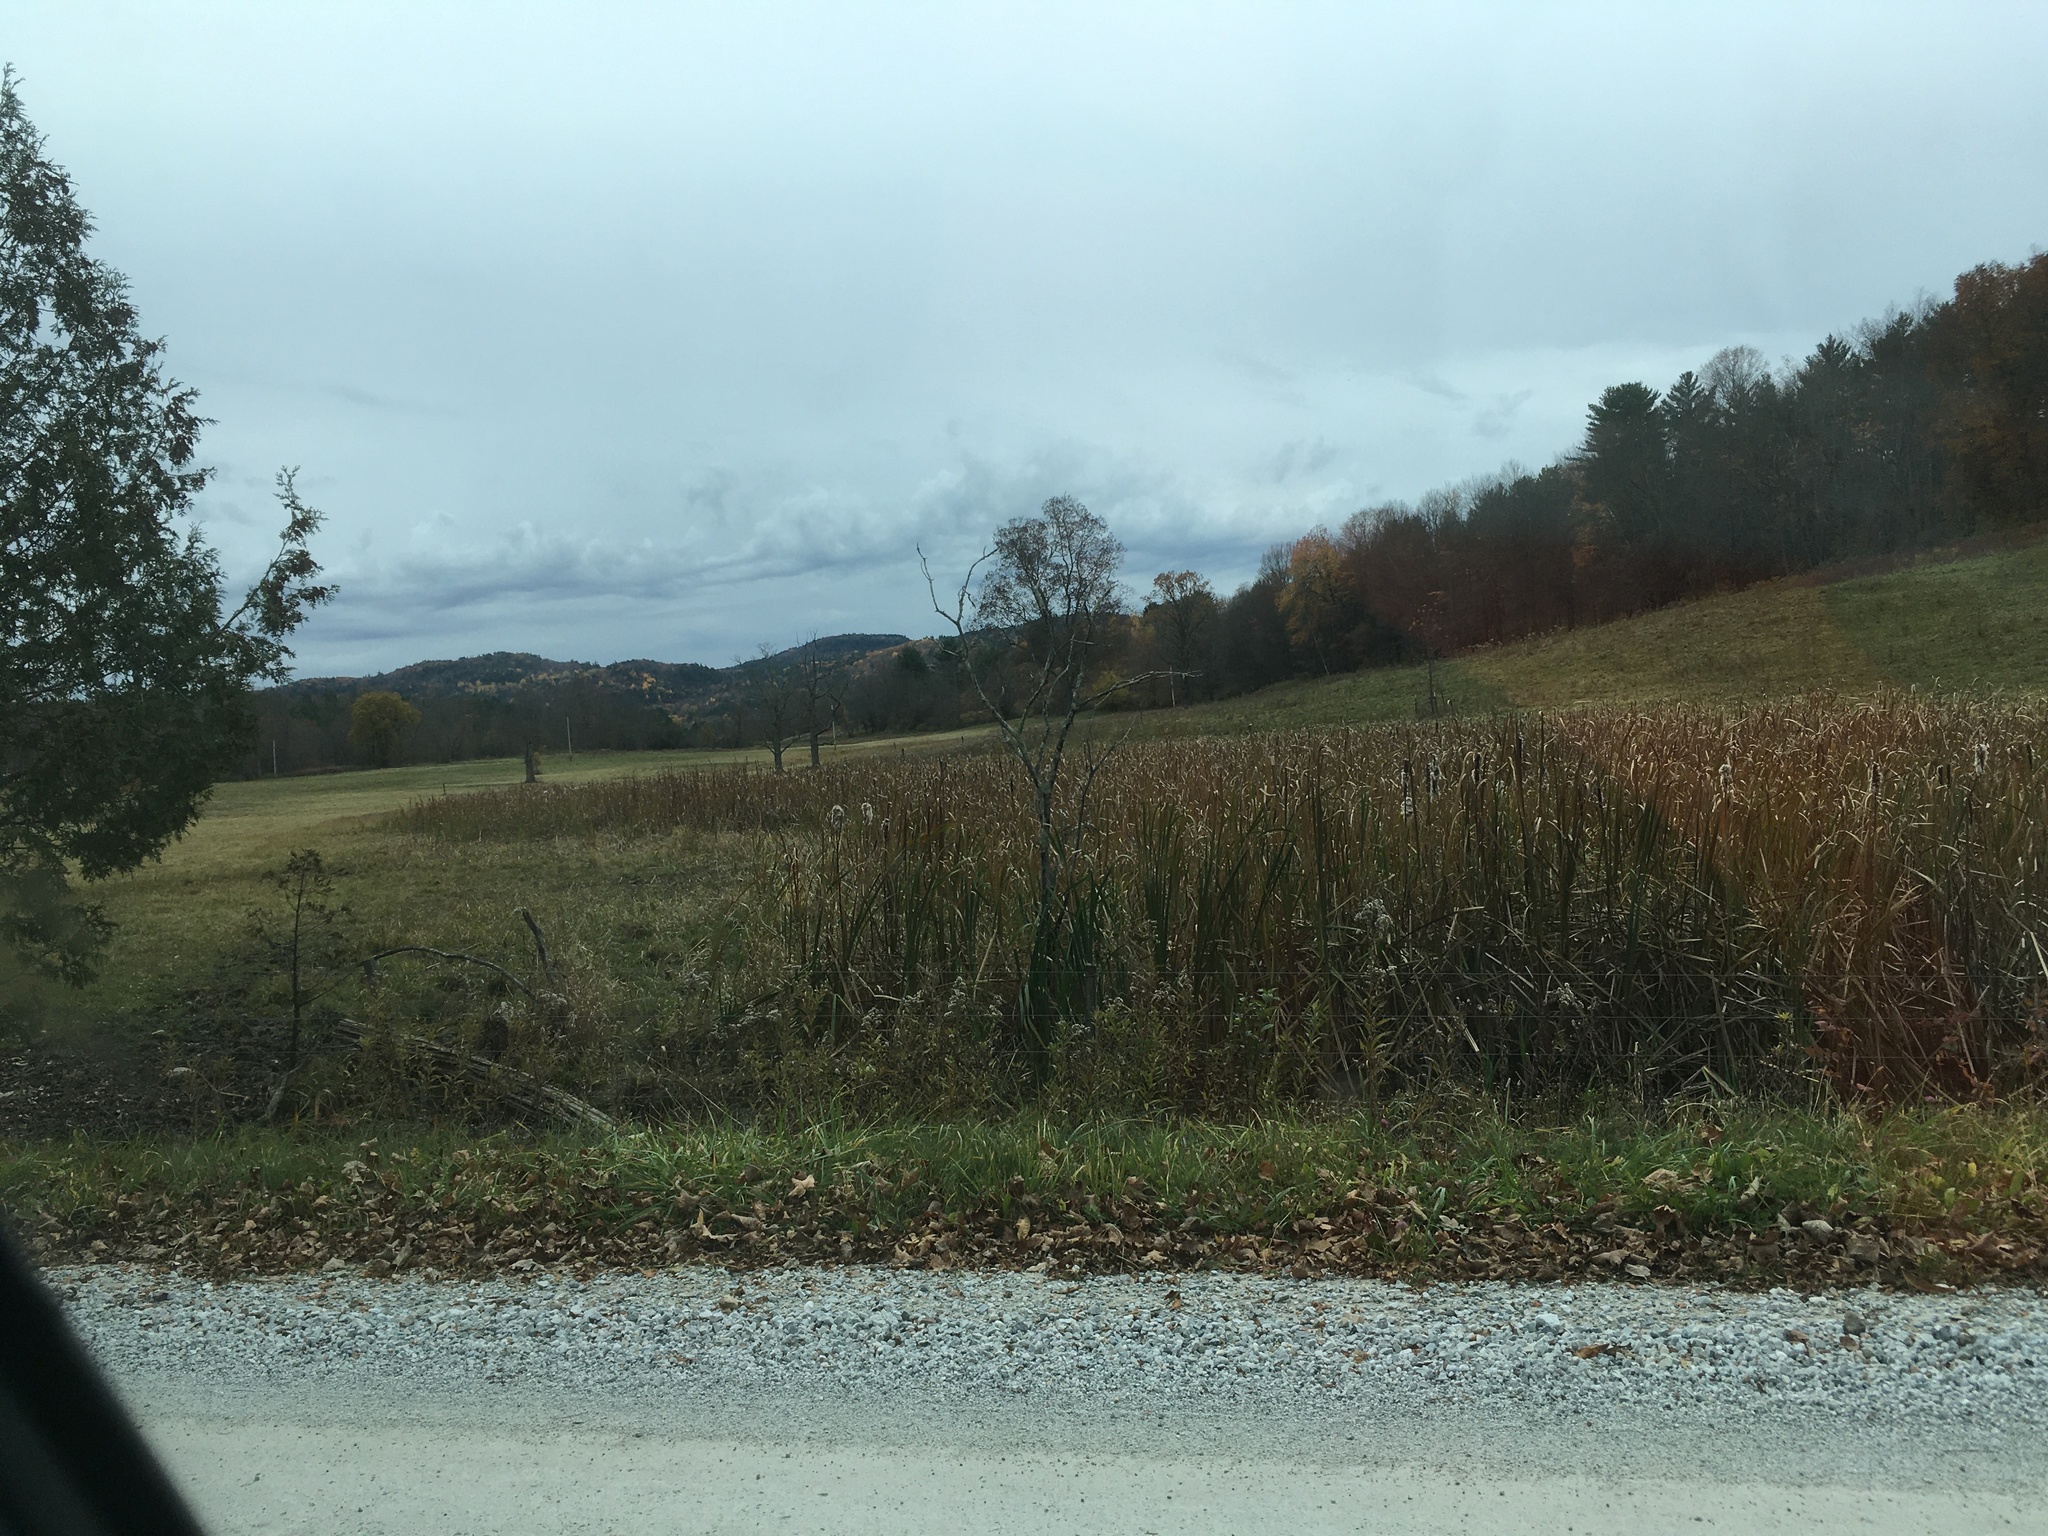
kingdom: Plantae
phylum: Tracheophyta
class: Liliopsida
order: Poales
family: Typhaceae
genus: Typha
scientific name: Typha latifolia
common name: Broadleaf cattail
